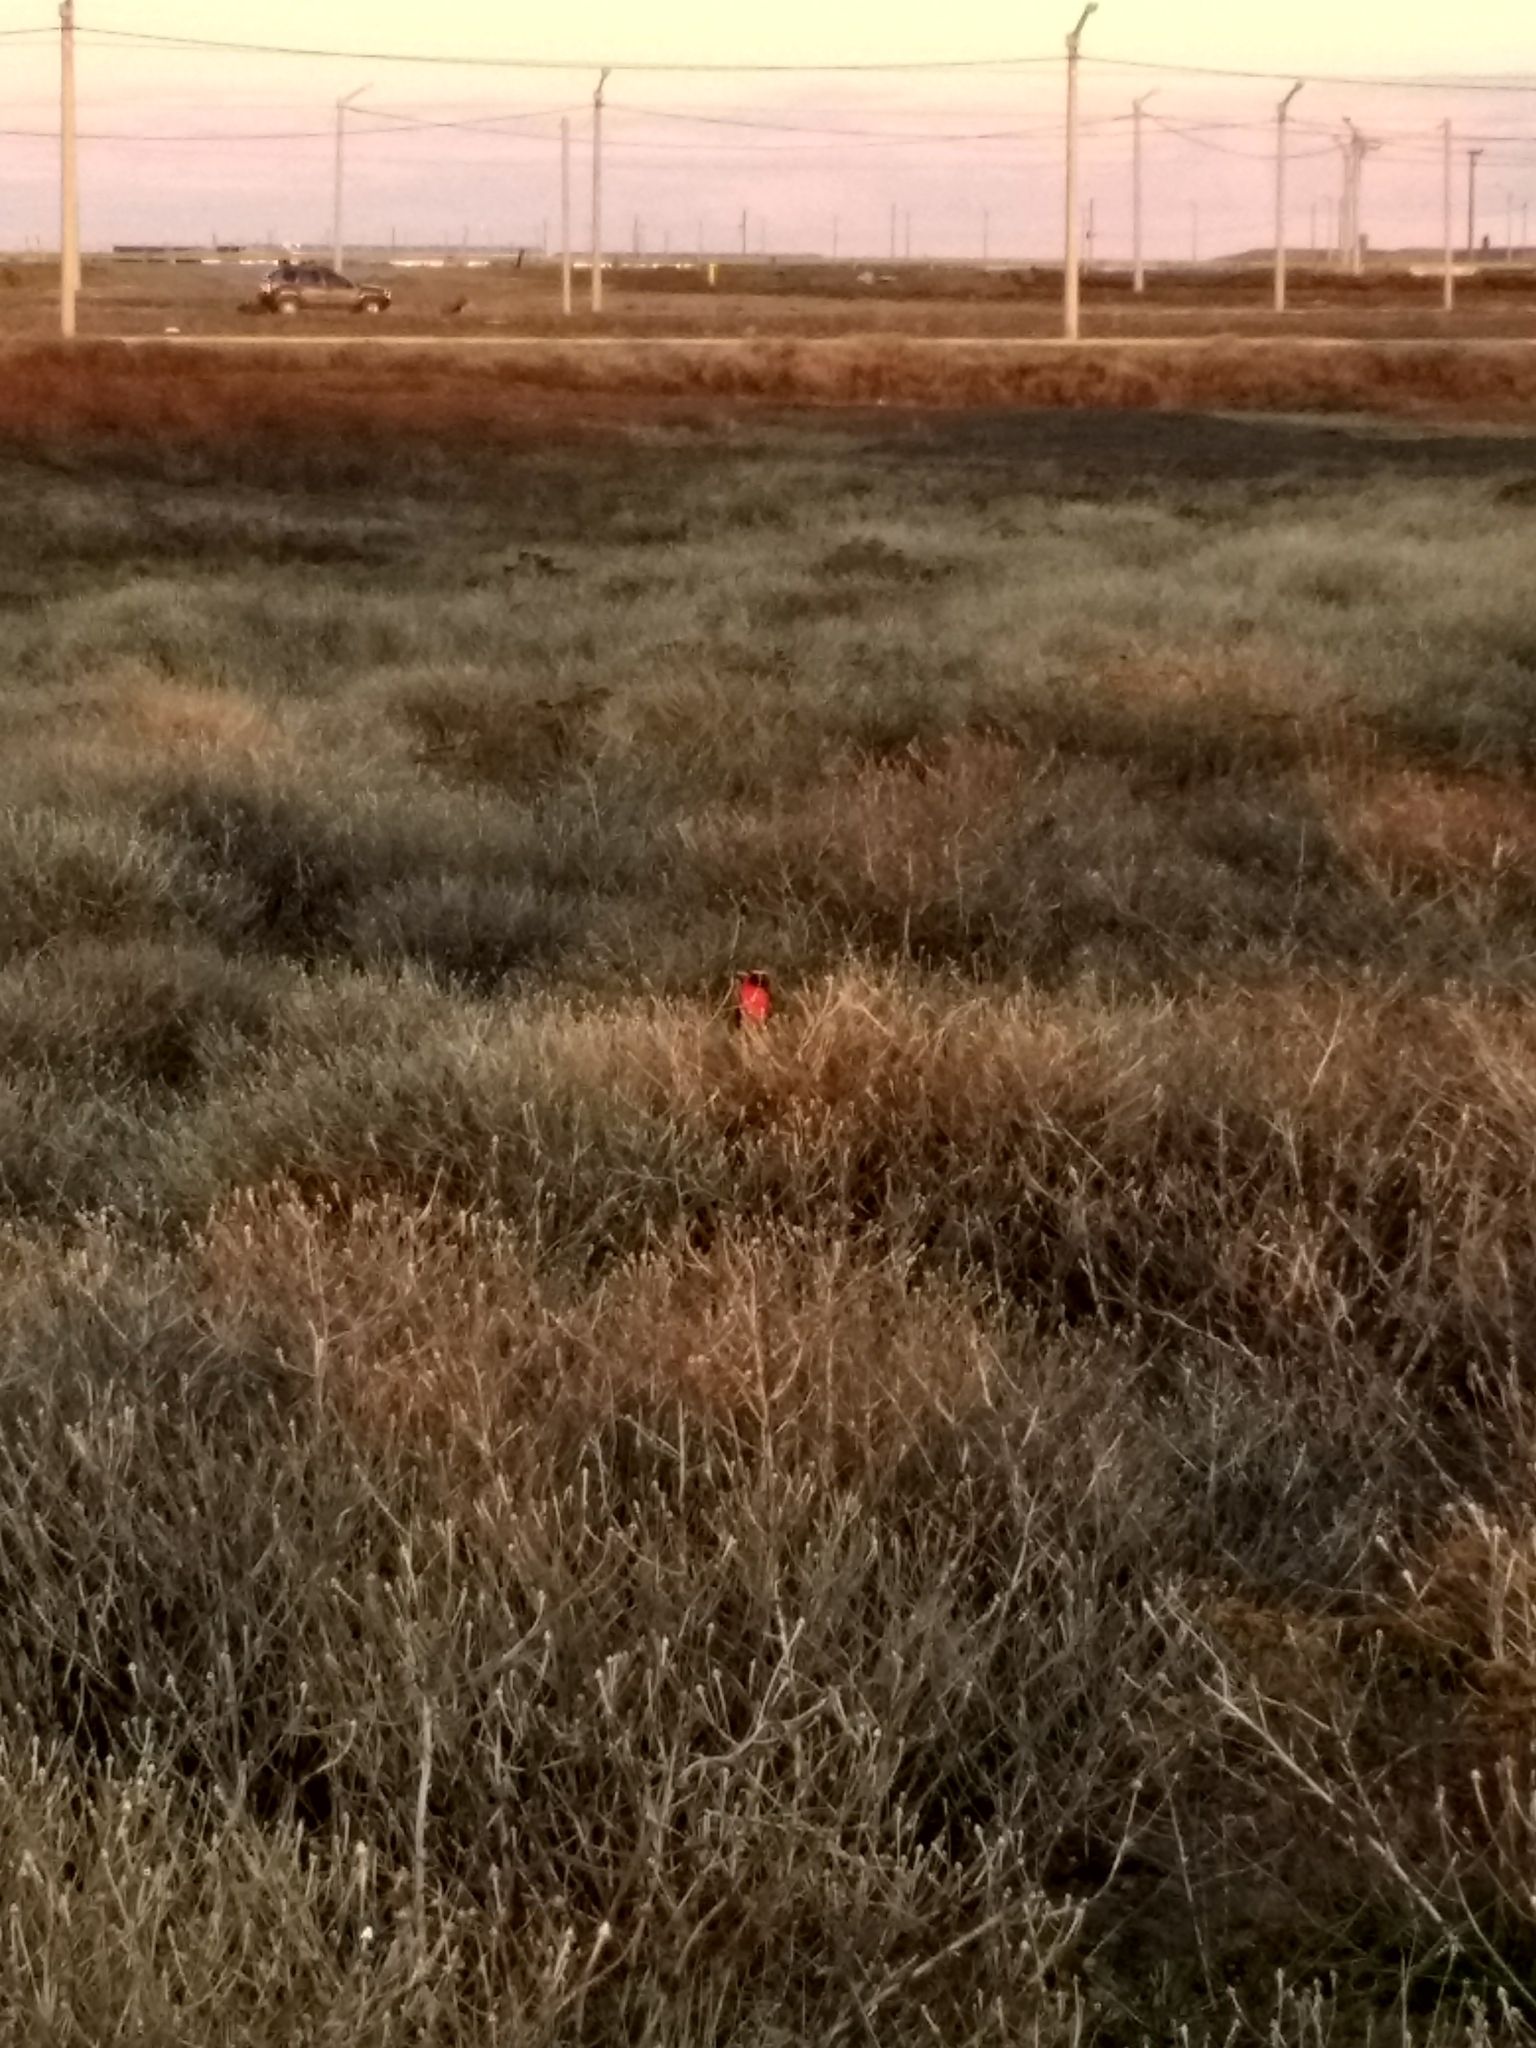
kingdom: Animalia
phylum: Chordata
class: Aves
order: Passeriformes
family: Icteridae
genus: Sturnella
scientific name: Sturnella loyca
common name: Long-tailed meadowlark
